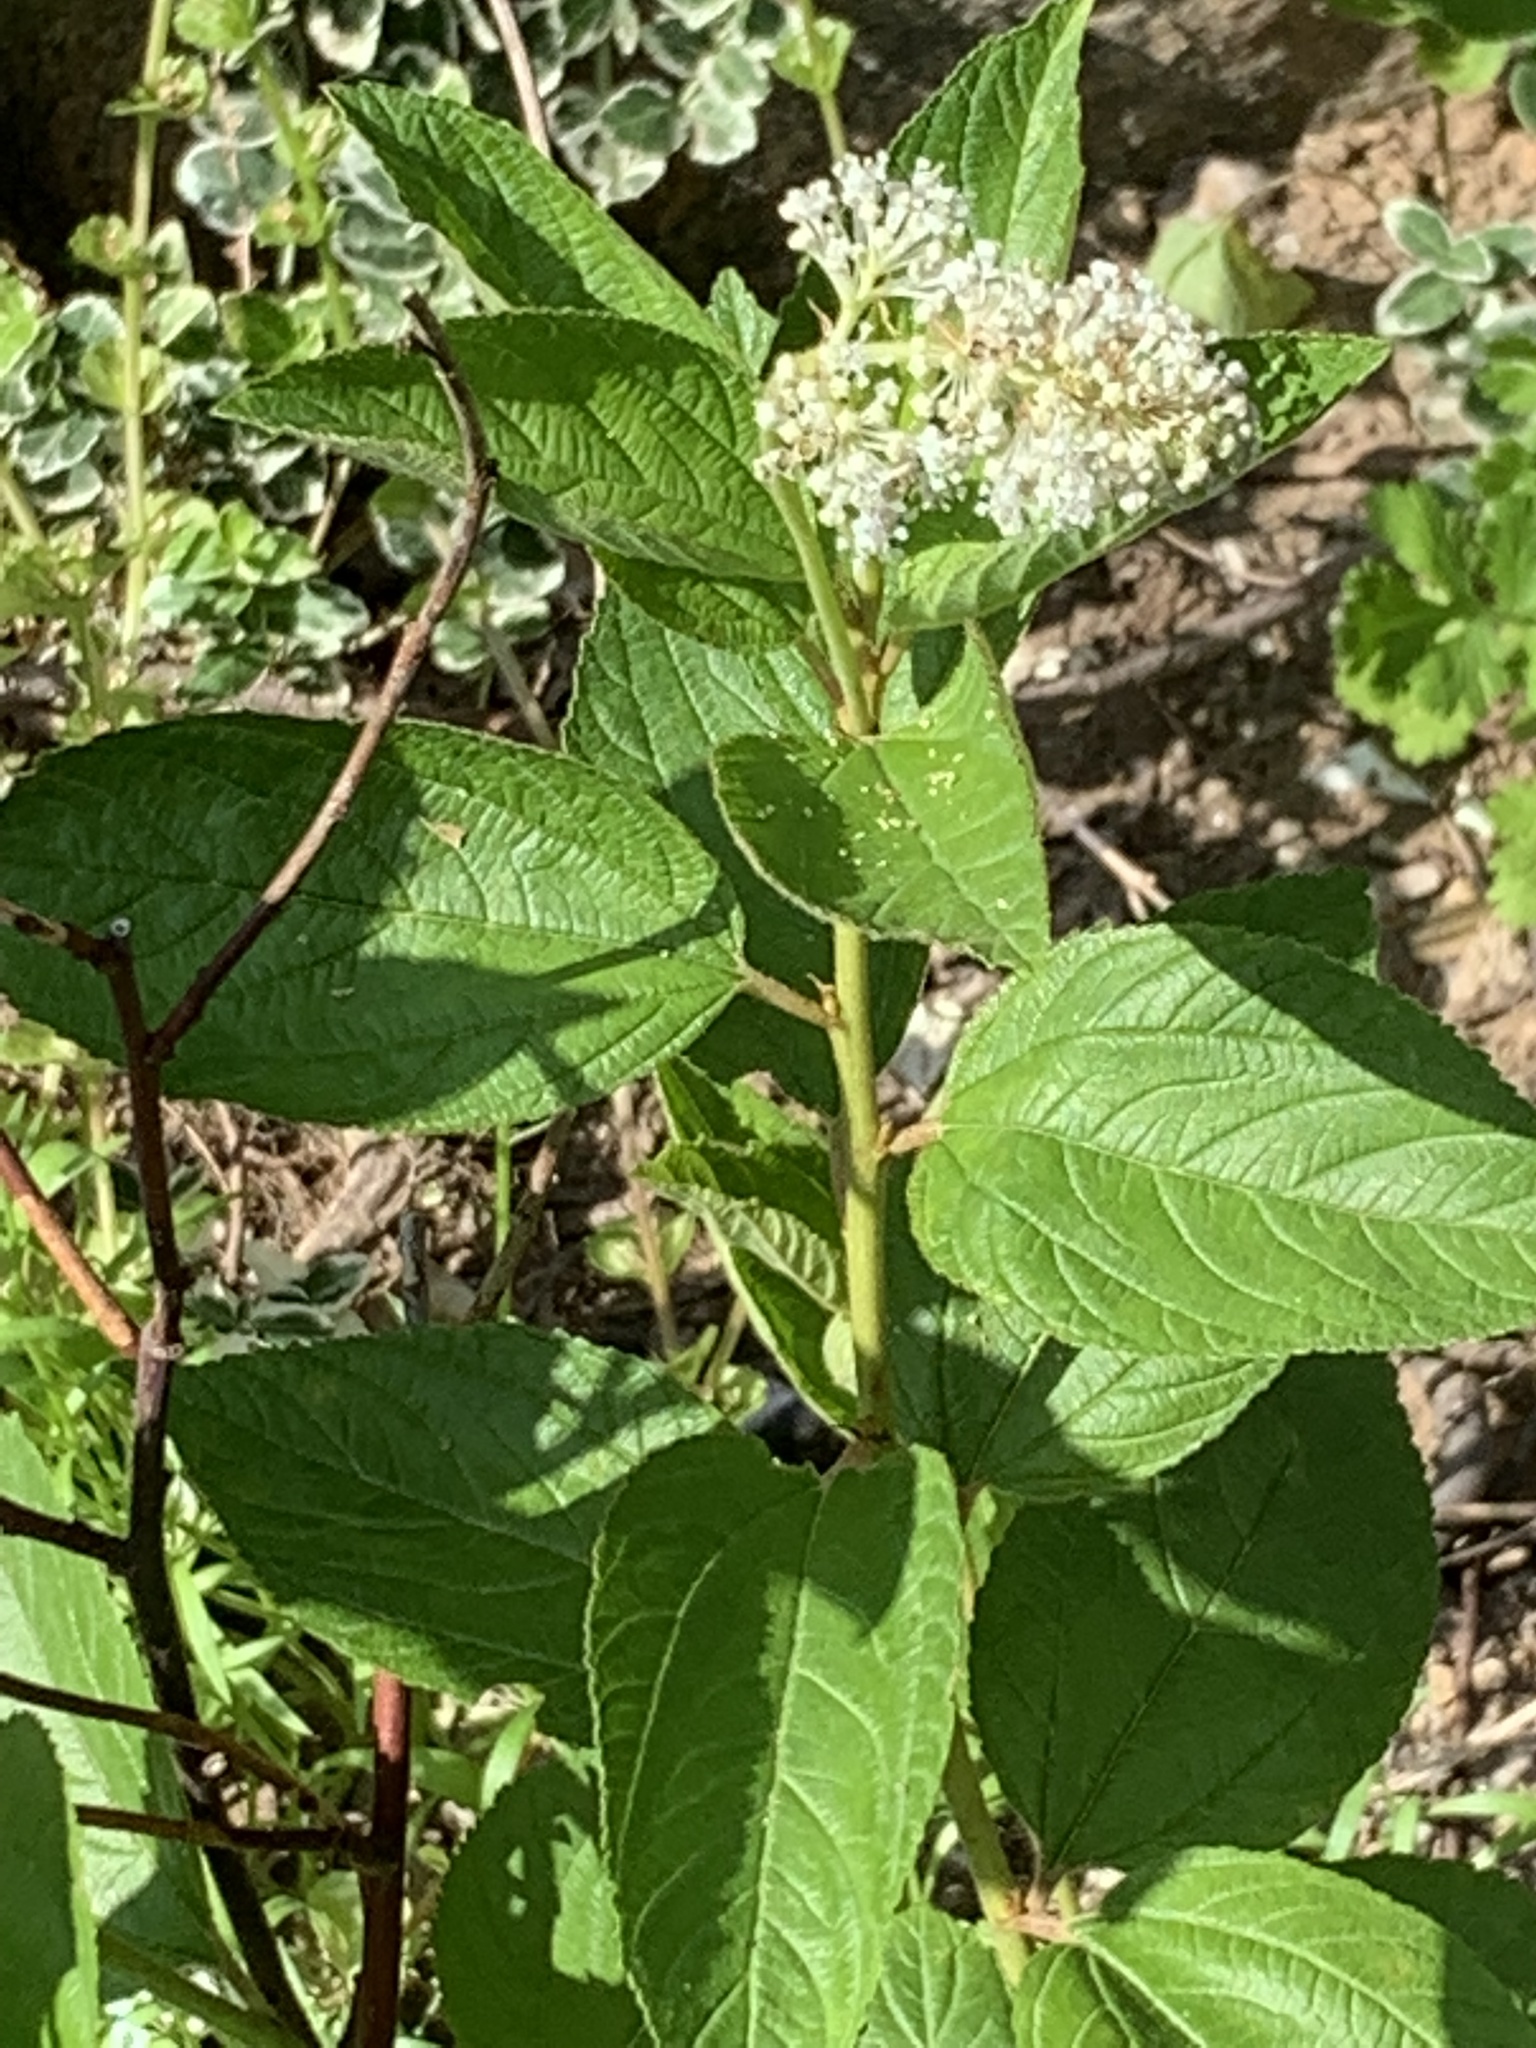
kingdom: Plantae
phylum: Tracheophyta
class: Magnoliopsida
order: Rosales
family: Rhamnaceae
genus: Ceanothus
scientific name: Ceanothus americanus
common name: Redroot
